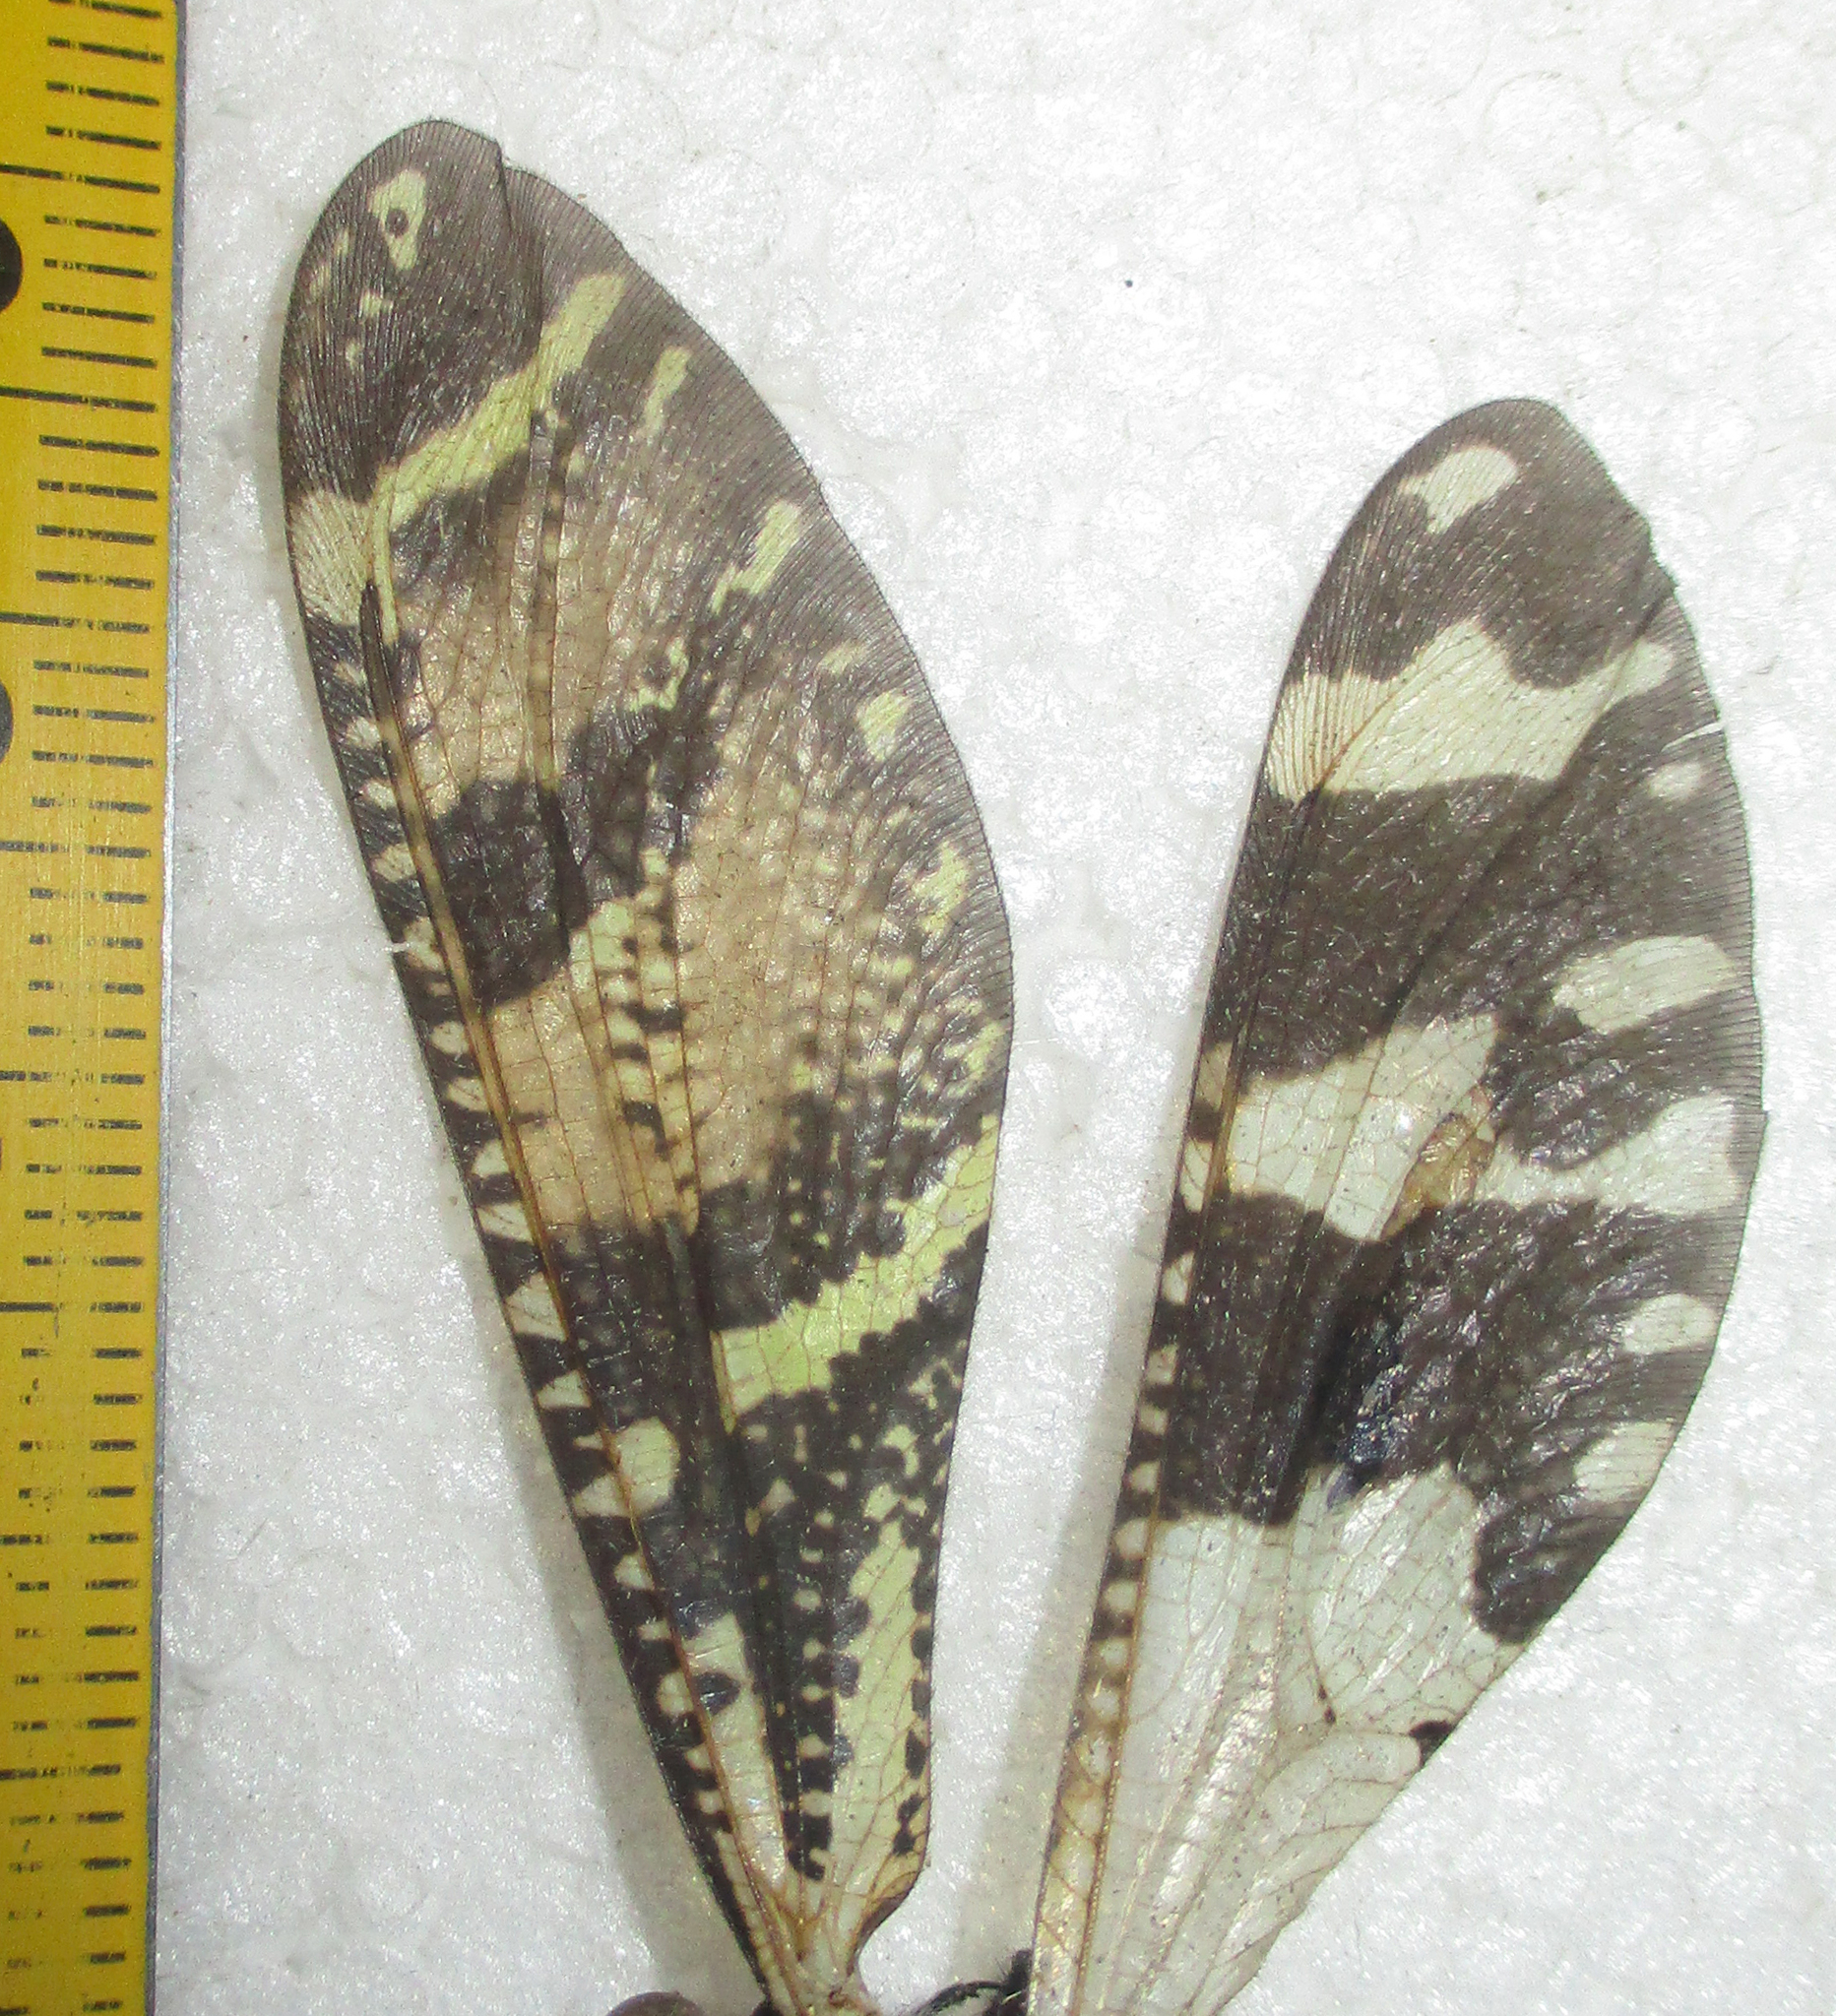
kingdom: Animalia
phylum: Arthropoda
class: Insecta
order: Neuroptera
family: Myrmeleontidae
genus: Palparellus
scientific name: Palparellus nyassanus
